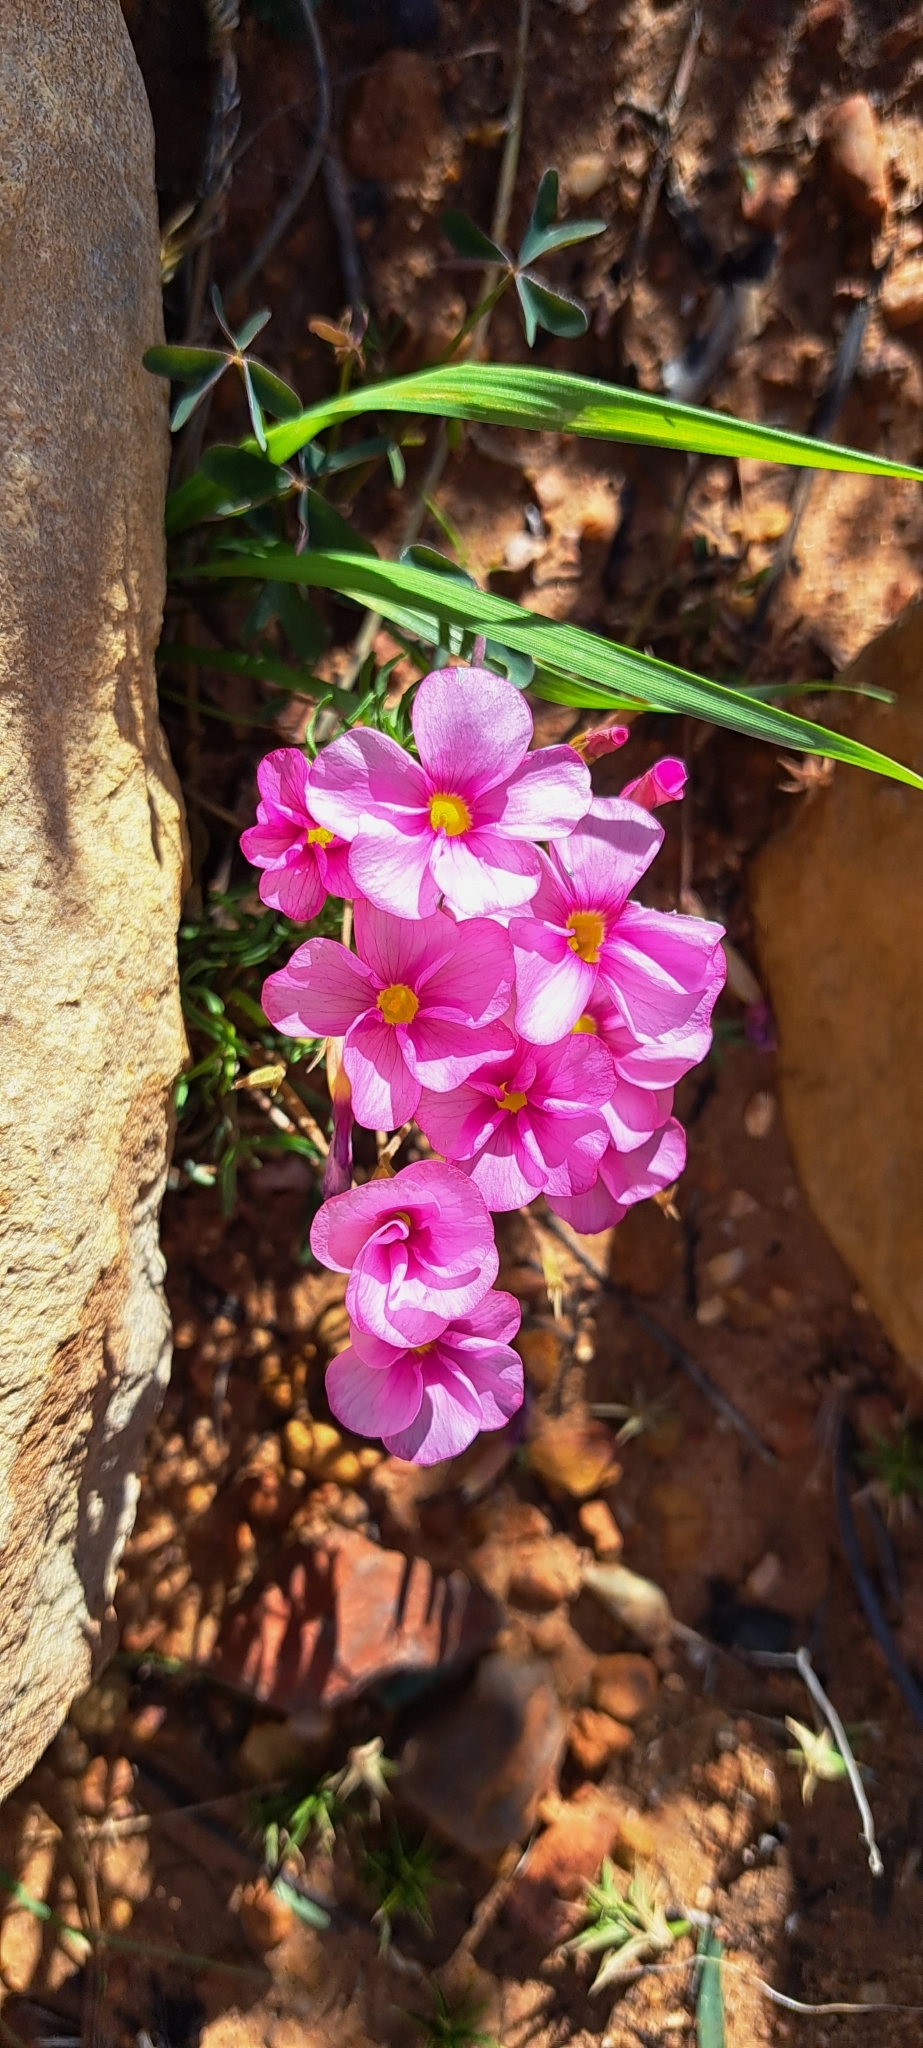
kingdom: Plantae
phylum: Tracheophyta
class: Magnoliopsida
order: Oxalidales
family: Oxalidaceae
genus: Oxalis
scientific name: Oxalis
